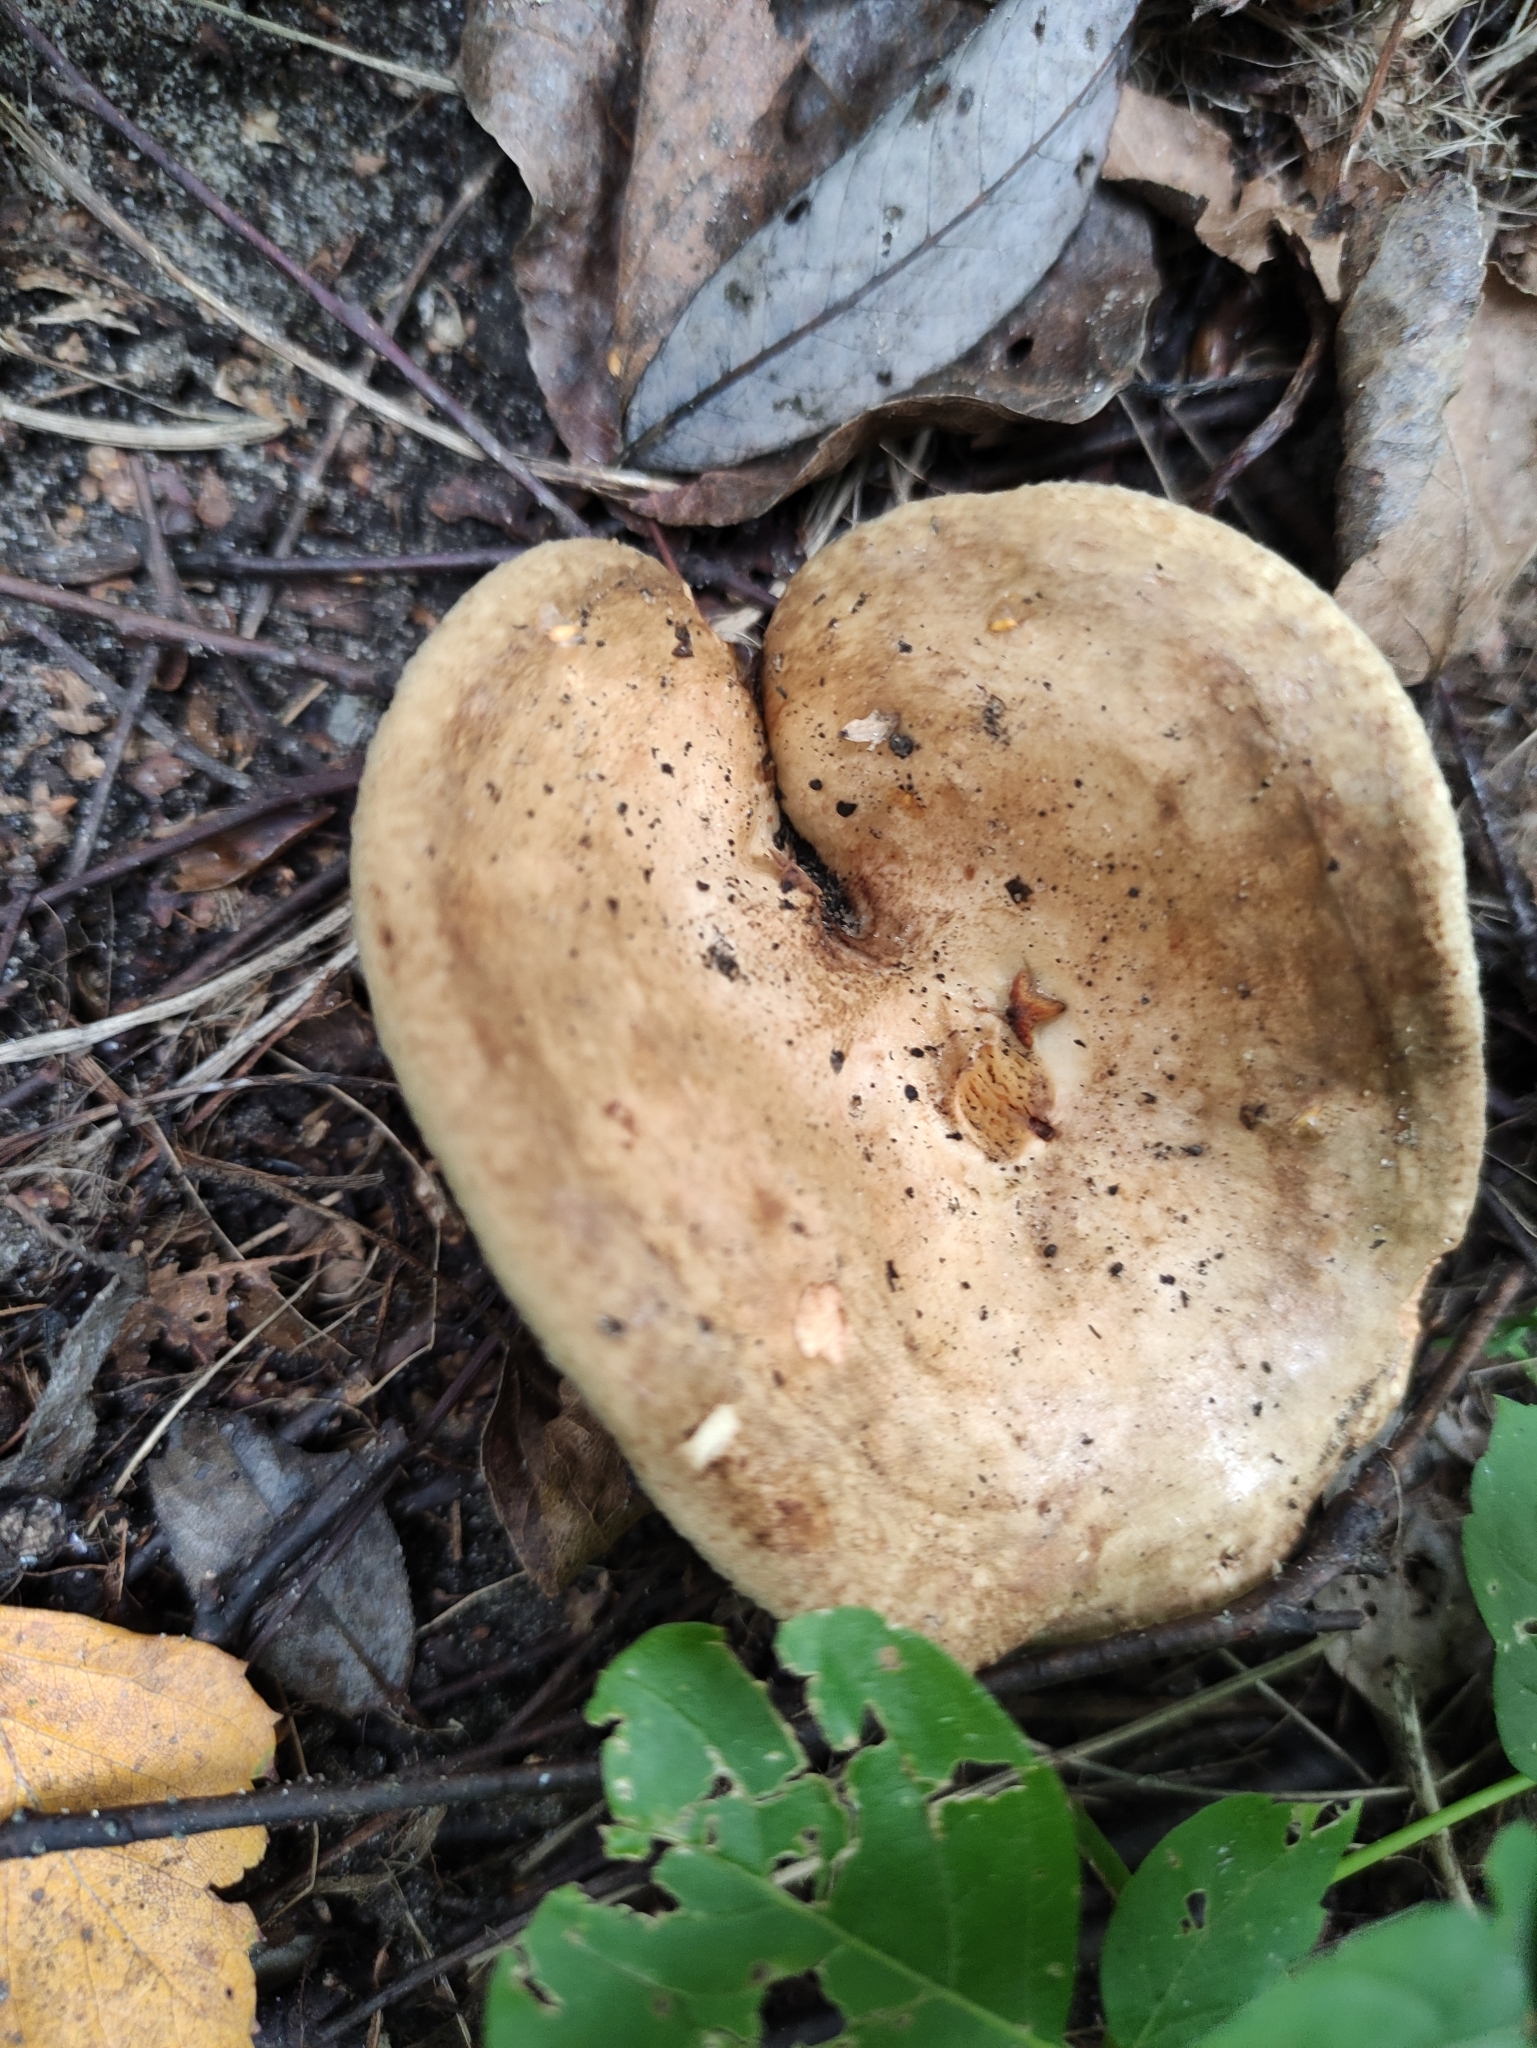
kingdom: Fungi
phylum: Basidiomycota
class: Agaricomycetes
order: Boletales
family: Paxillaceae
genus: Paxillus
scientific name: Paxillus involutus
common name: Brown roll rim
